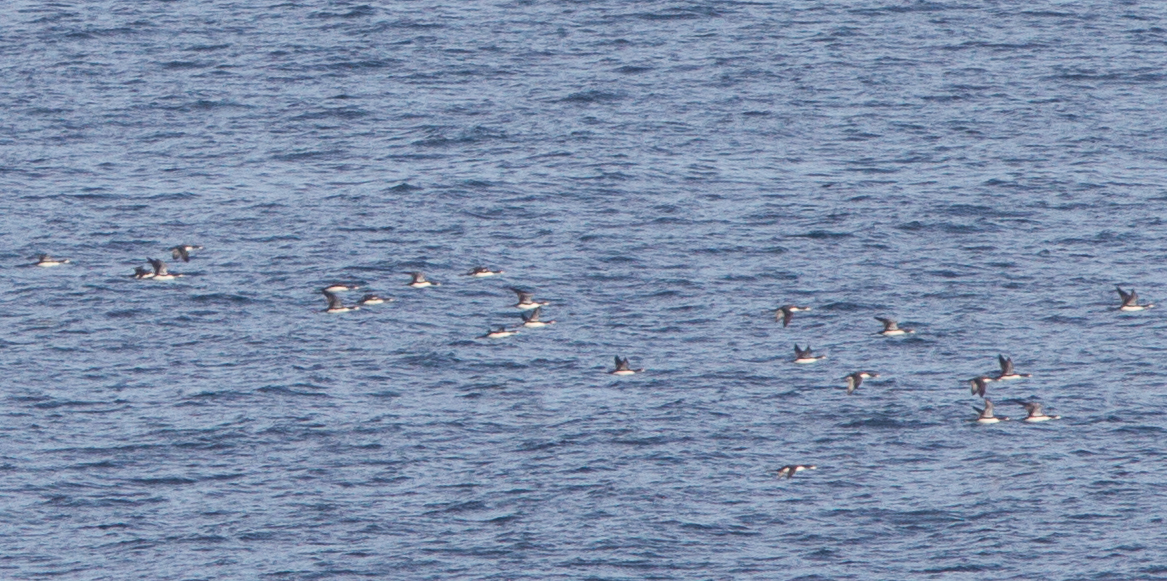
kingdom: Animalia
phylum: Chordata
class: Aves
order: Gaviiformes
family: Gaviidae
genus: Gavia
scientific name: Gavia pacifica
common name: Pacific loon
